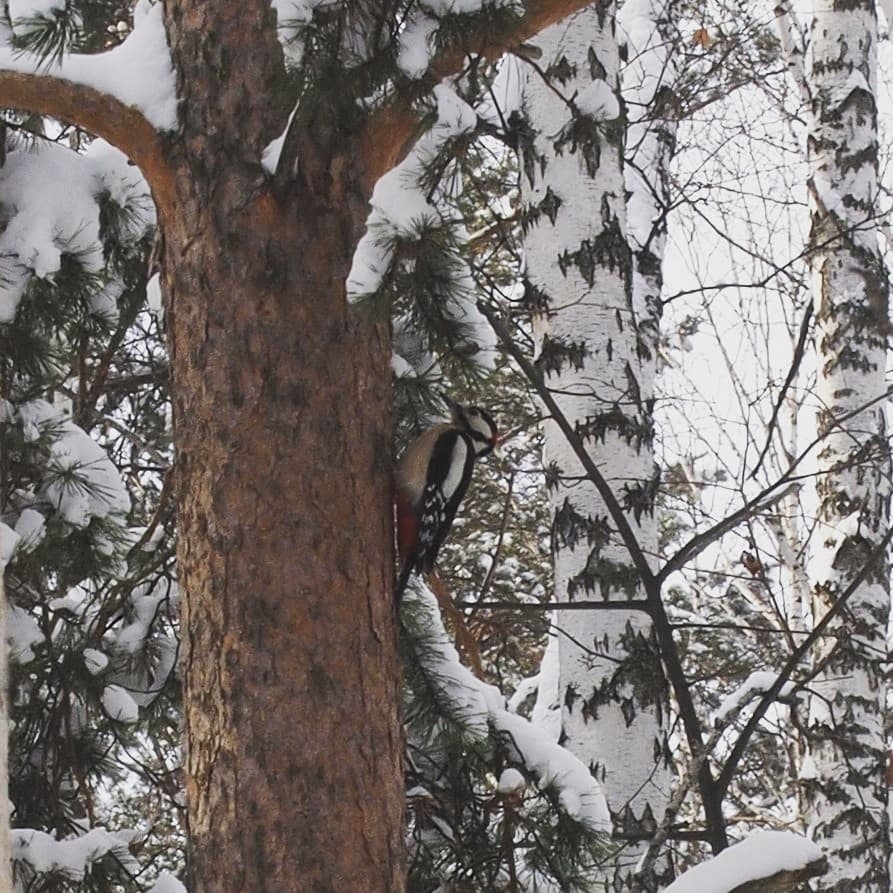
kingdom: Animalia
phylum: Chordata
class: Aves
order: Piciformes
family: Picidae
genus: Dendrocopos
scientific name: Dendrocopos major
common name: Great spotted woodpecker
